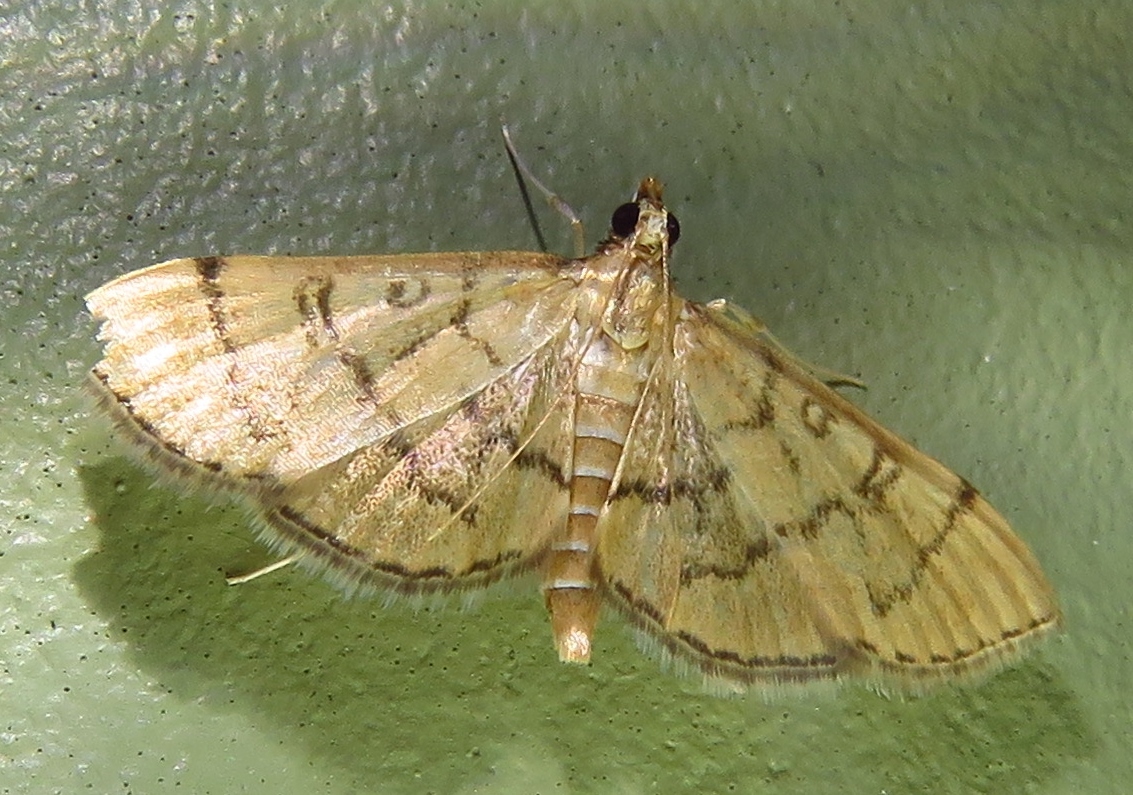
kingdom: Animalia
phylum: Arthropoda
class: Insecta
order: Lepidoptera
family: Crambidae
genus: Lamprosema
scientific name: Lamprosema Blepharomastix ranalis
